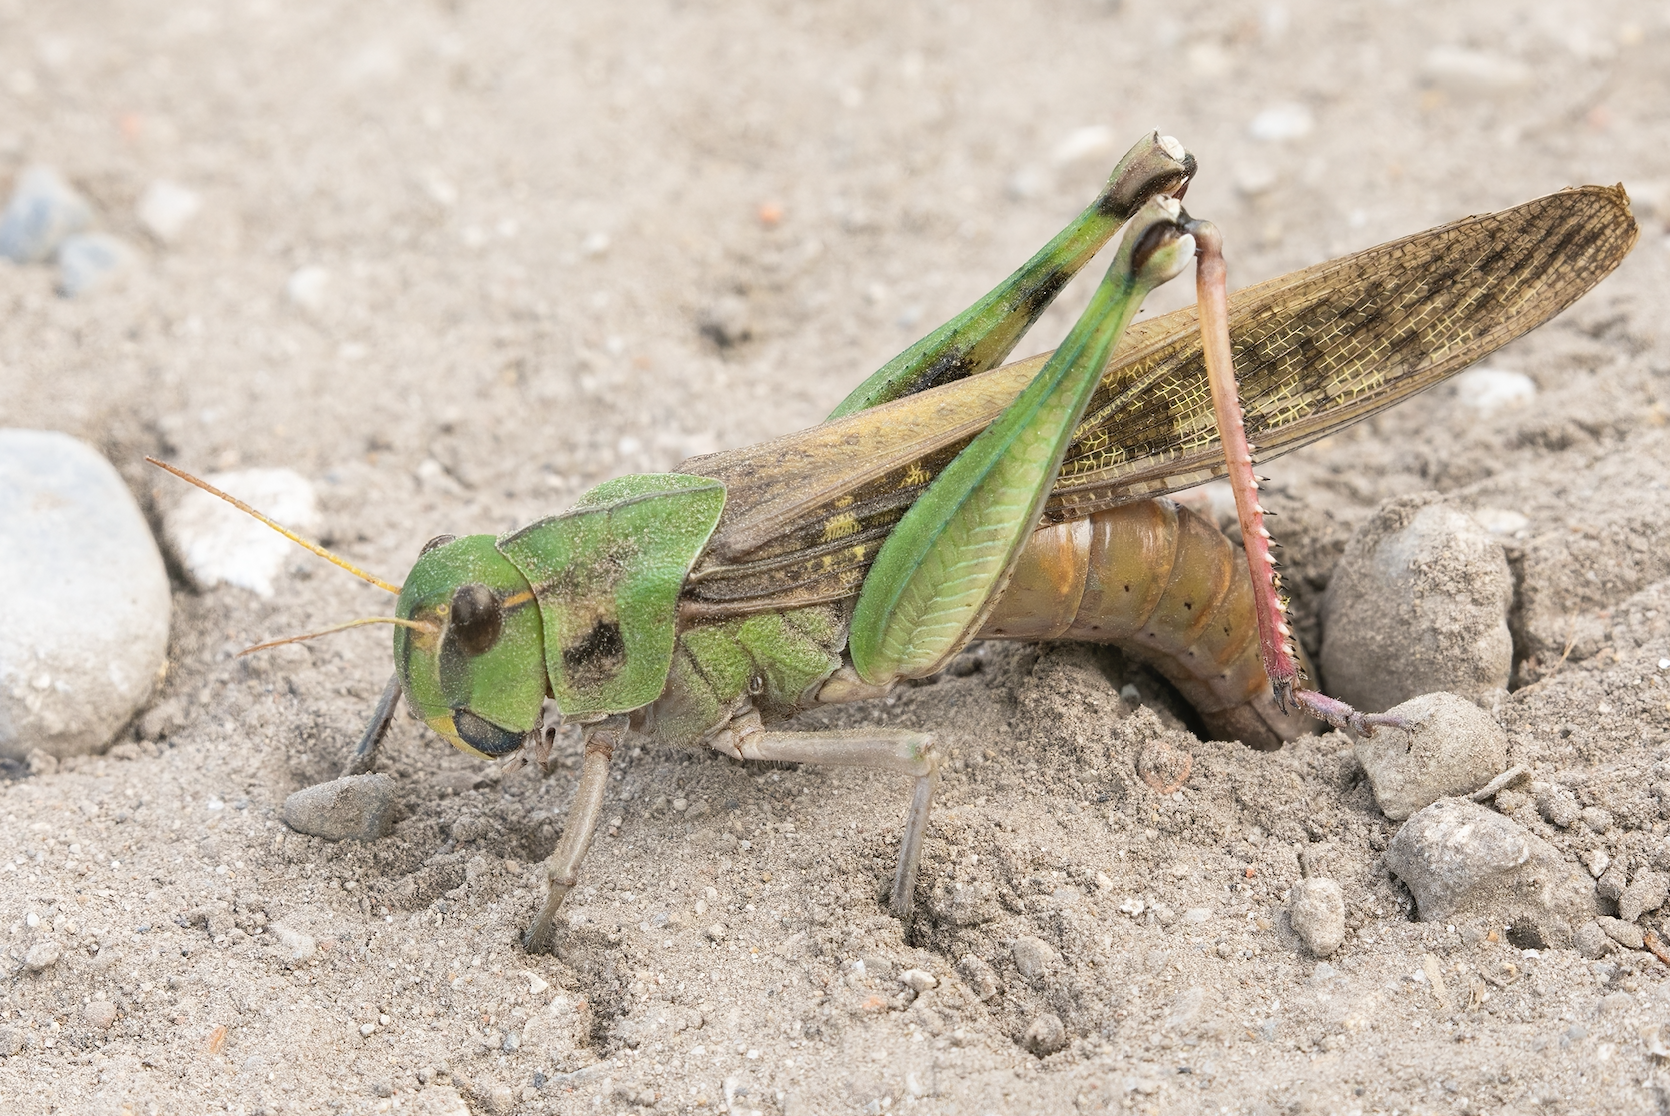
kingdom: Animalia
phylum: Arthropoda
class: Insecta
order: Orthoptera
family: Acrididae
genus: Locusta
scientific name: Locusta migratoria
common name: Migratory locust
